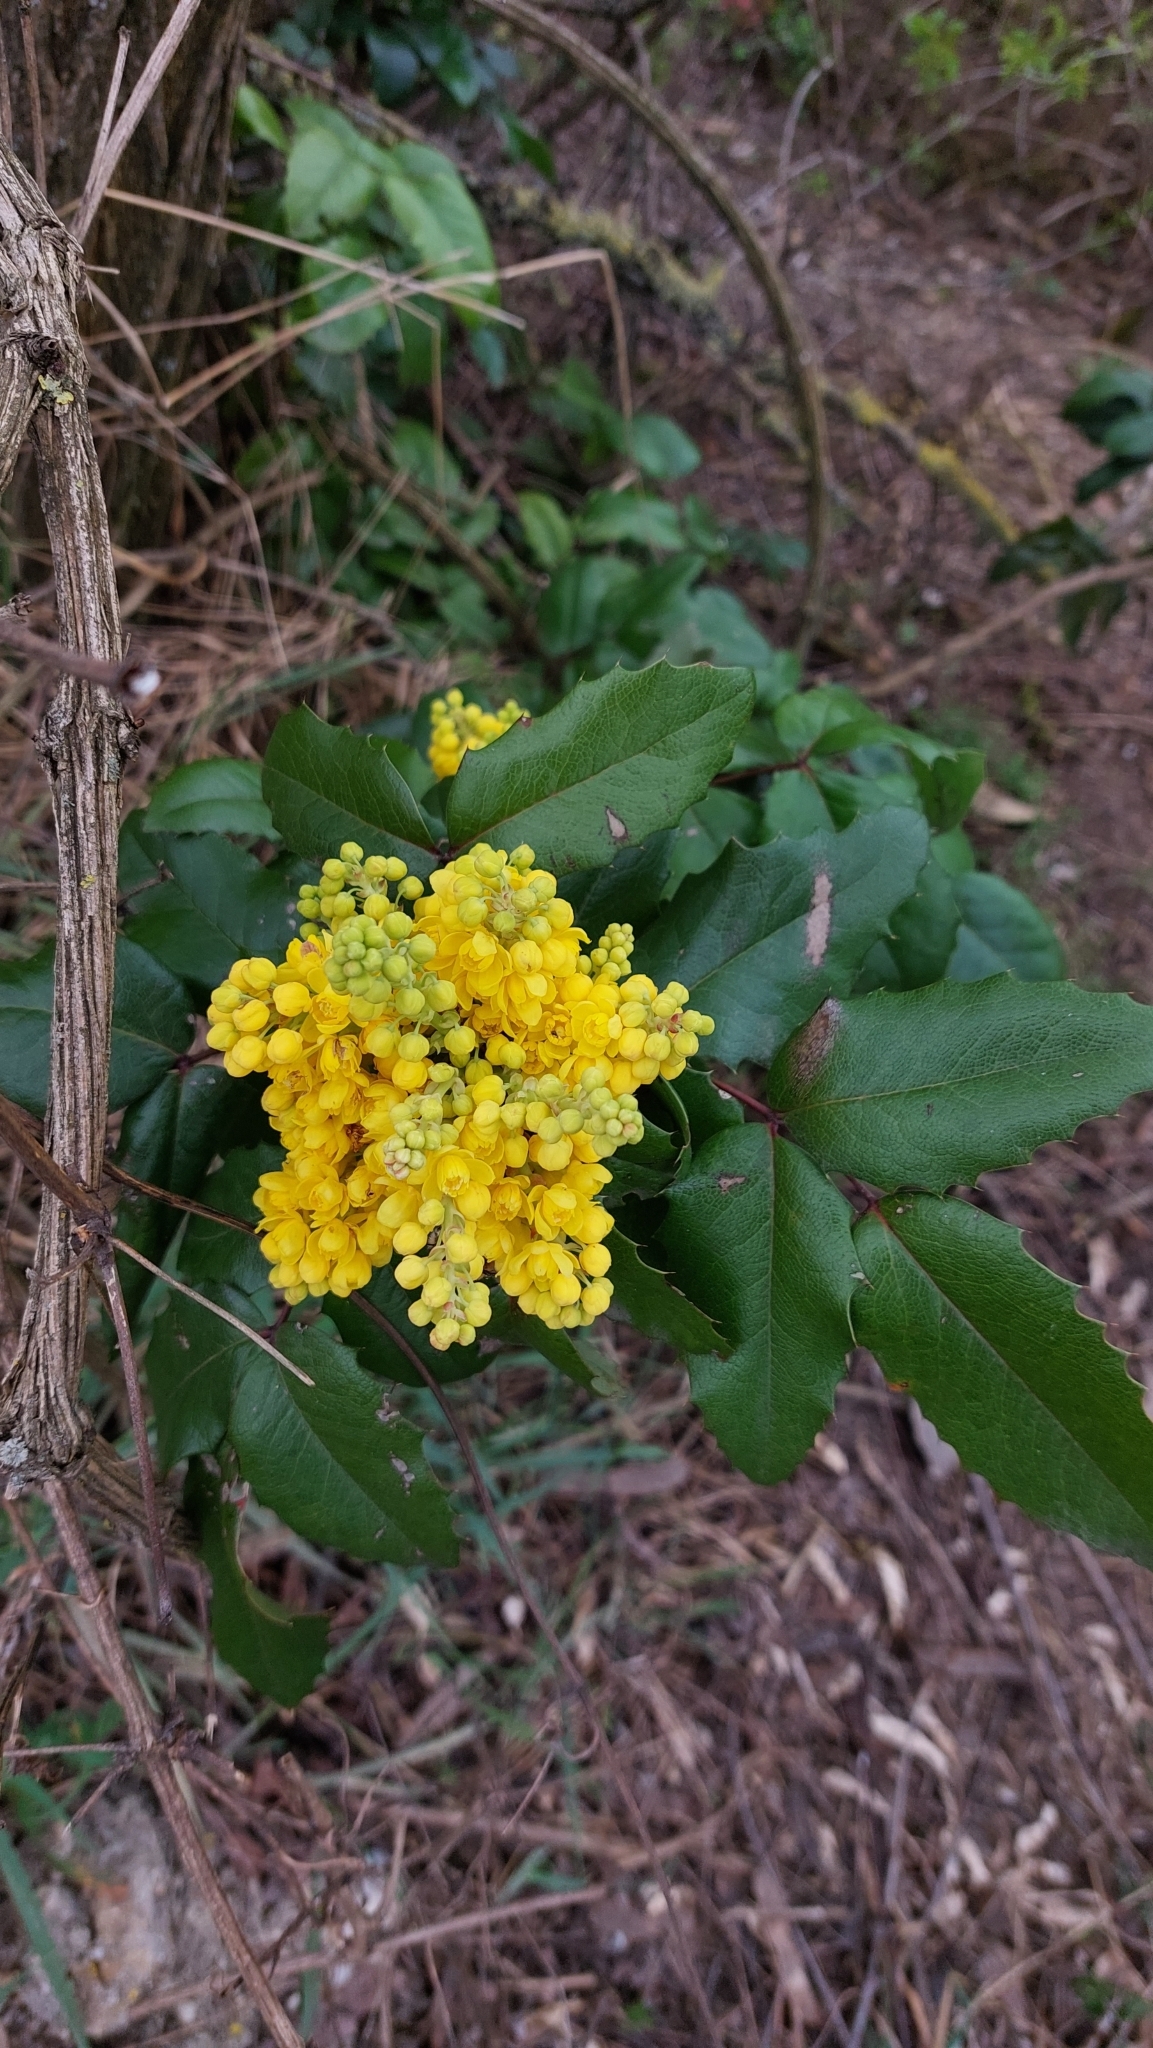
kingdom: Plantae
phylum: Tracheophyta
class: Magnoliopsida
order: Ranunculales
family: Berberidaceae
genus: Mahonia
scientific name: Mahonia aquifolium
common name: Oregon-grape
